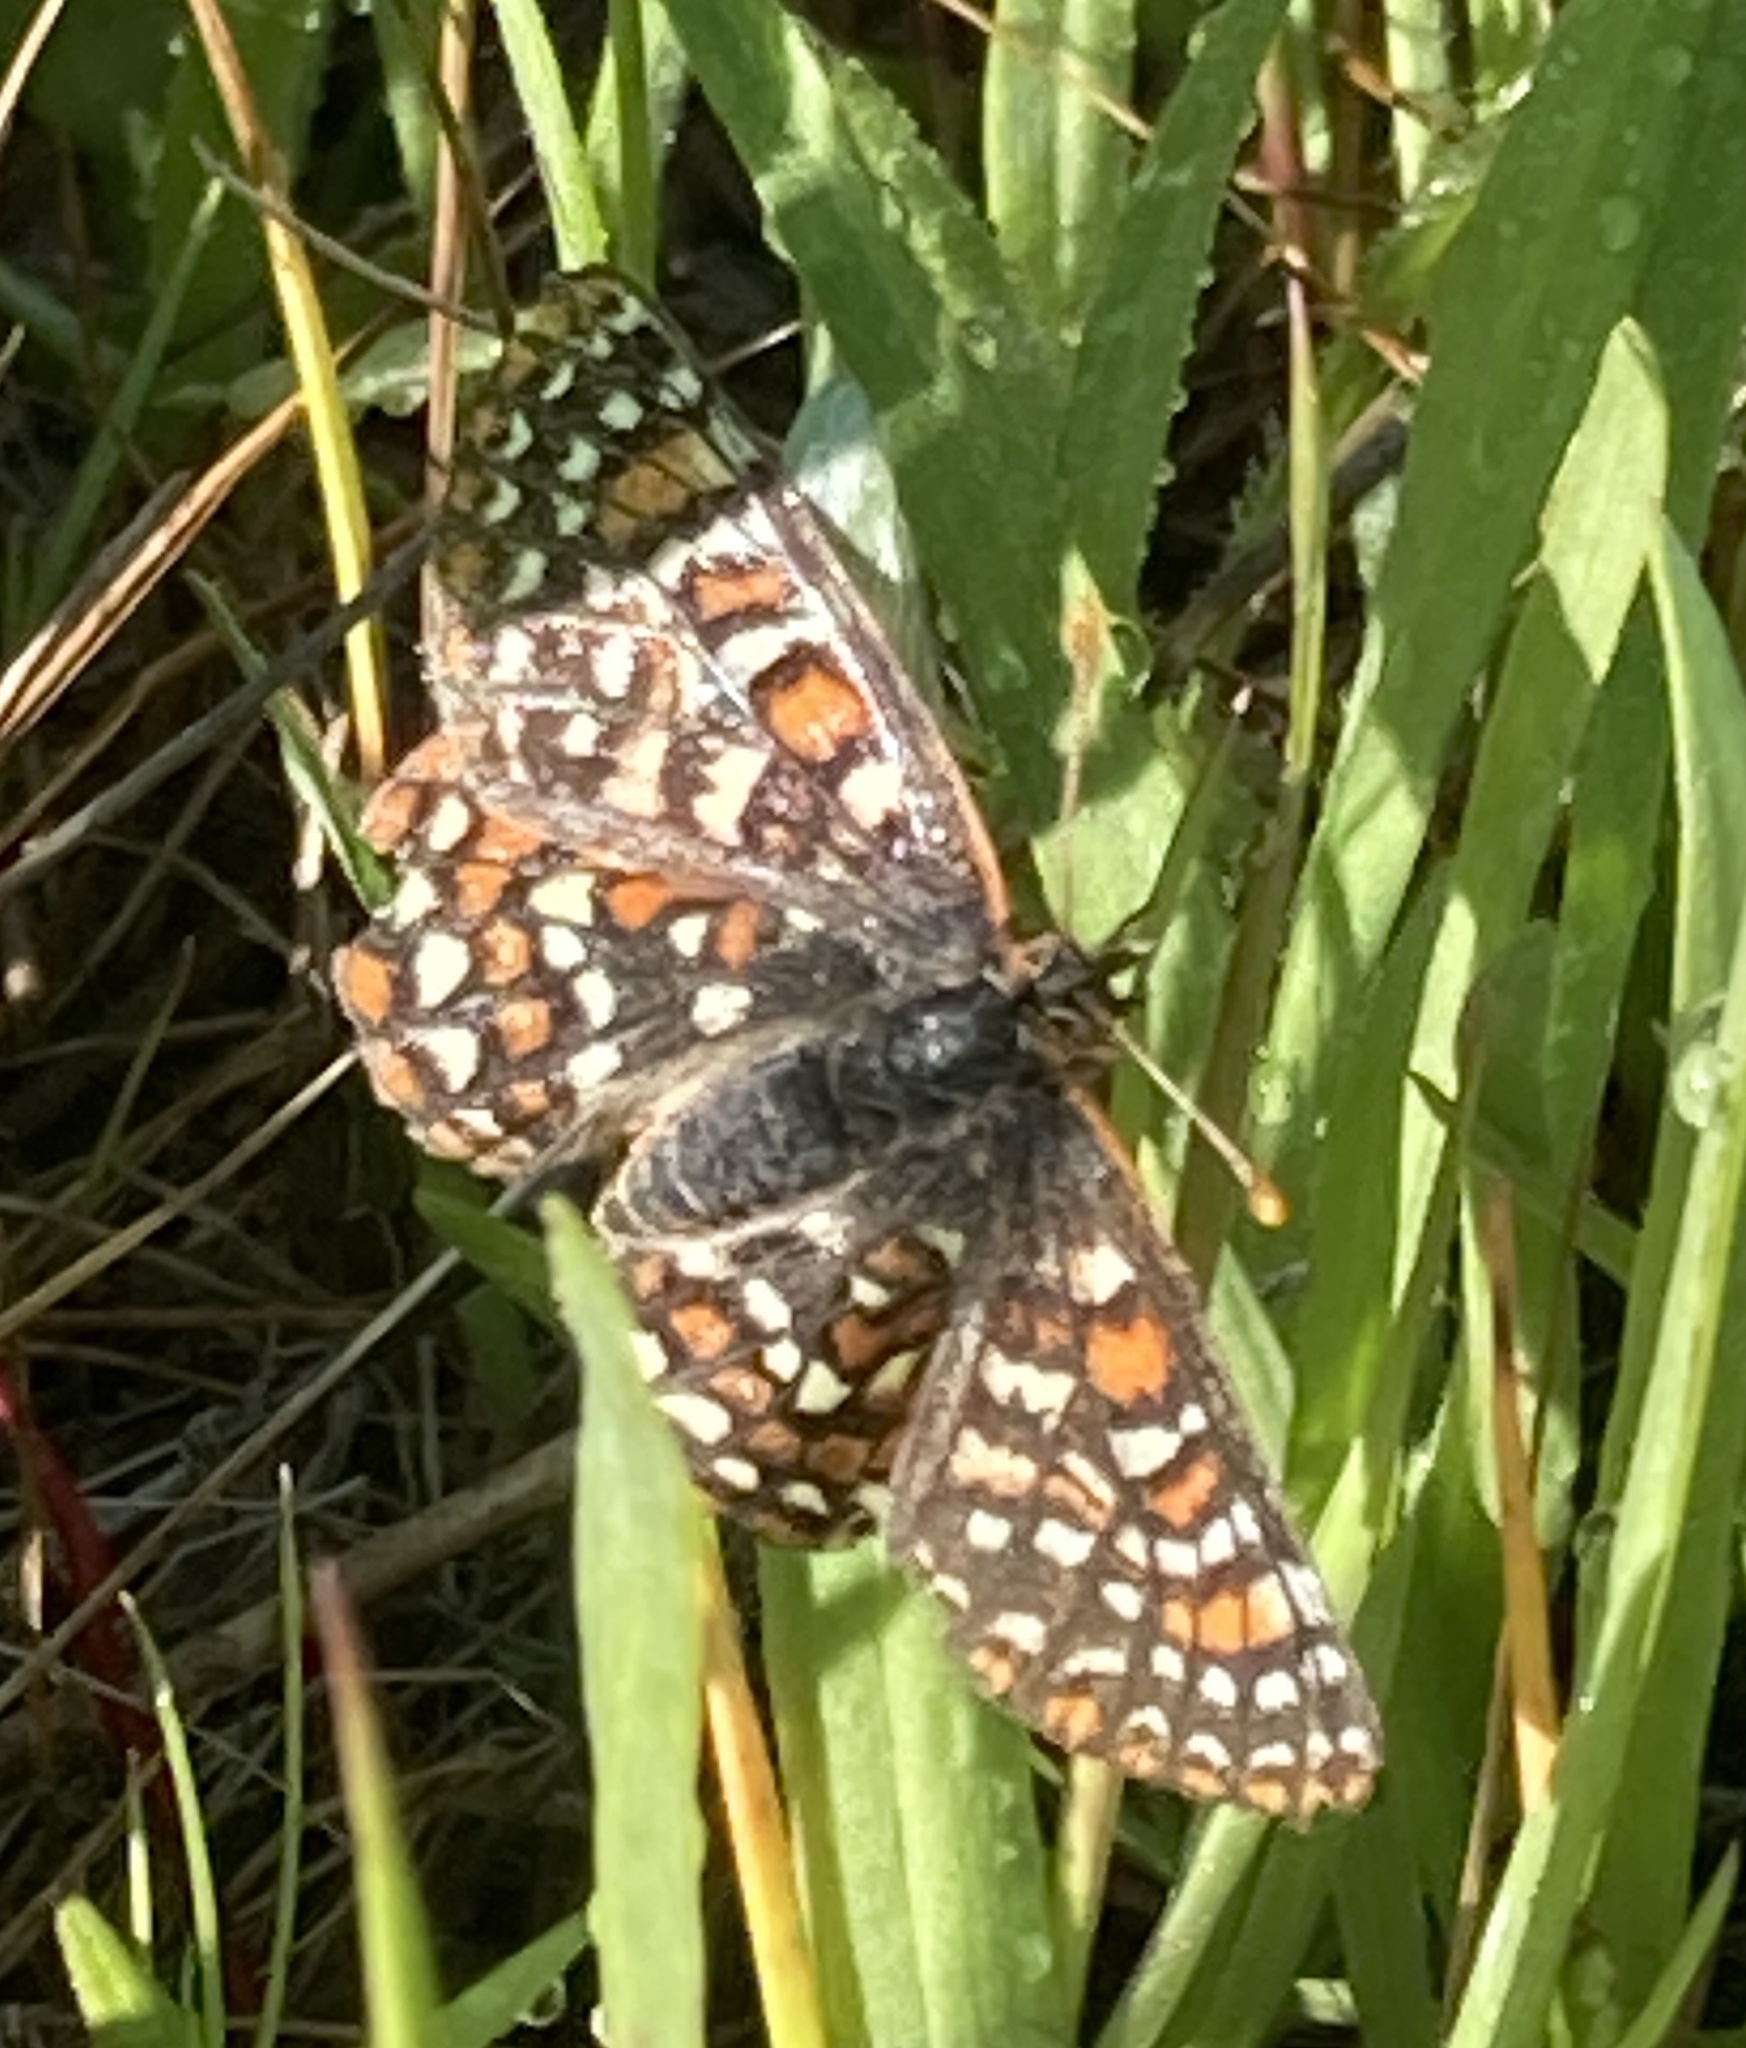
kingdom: Animalia
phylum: Arthropoda
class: Insecta
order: Lepidoptera
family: Nymphalidae
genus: Occidryas
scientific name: Occidryas editha
